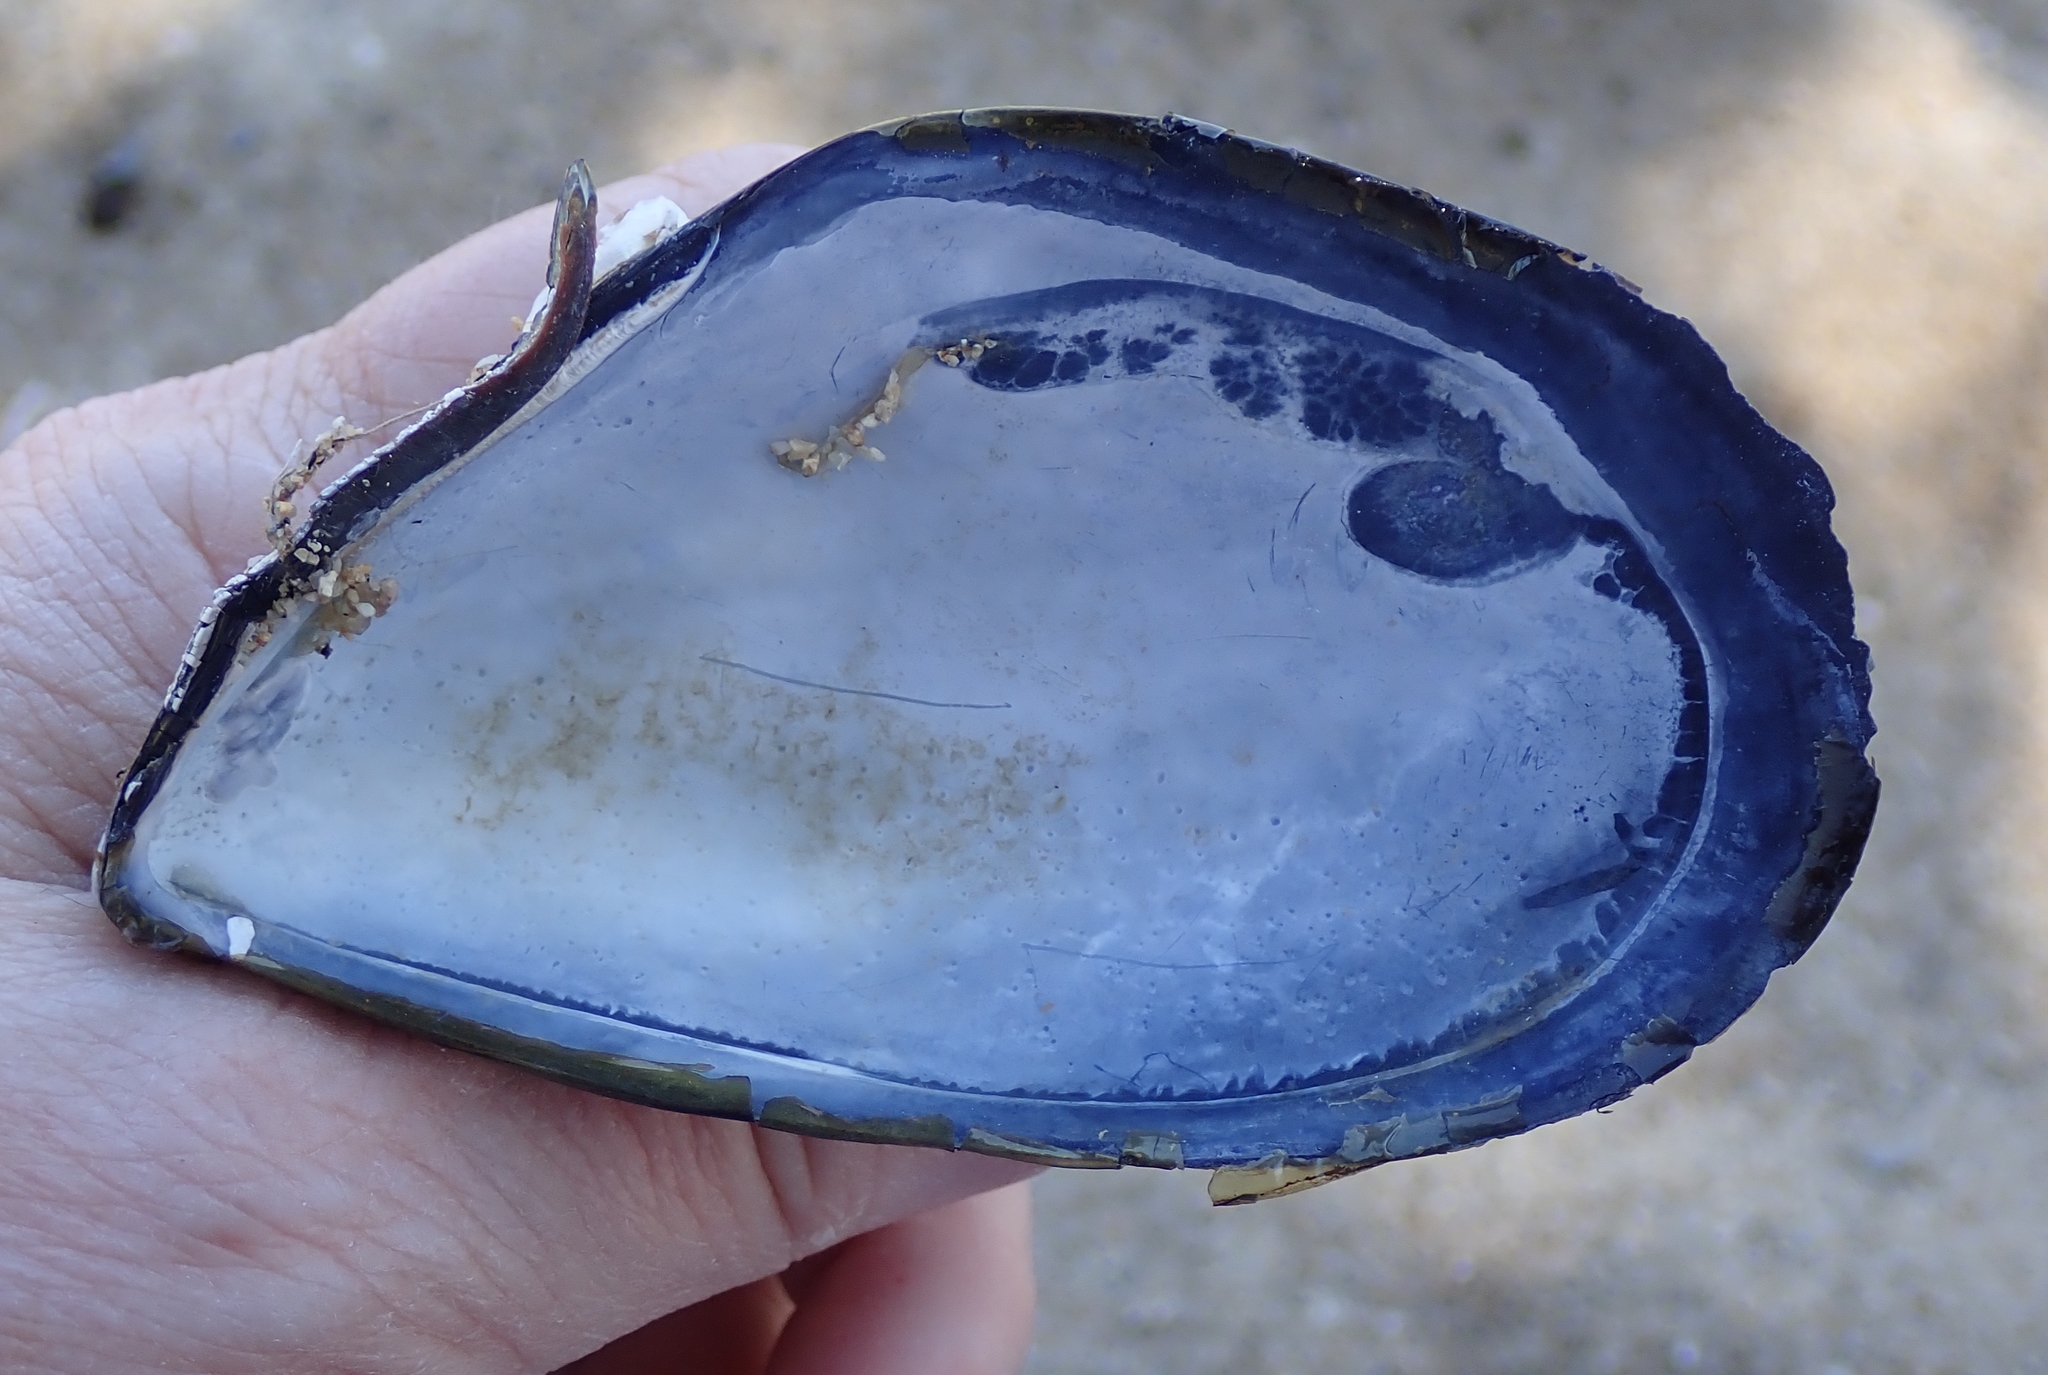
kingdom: Animalia
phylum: Mollusca
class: Bivalvia
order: Mytilida
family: Mytilidae
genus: Mytilus
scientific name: Mytilus
